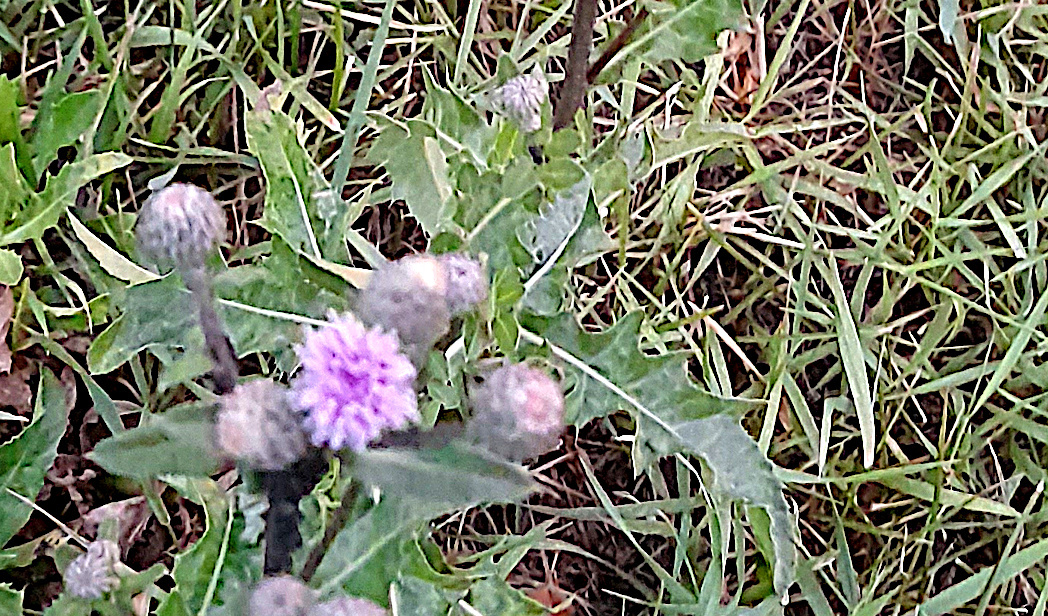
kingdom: Plantae
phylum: Tracheophyta
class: Magnoliopsida
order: Asterales
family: Asteraceae
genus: Cirsium
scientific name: Cirsium arvense
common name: Creeping thistle
